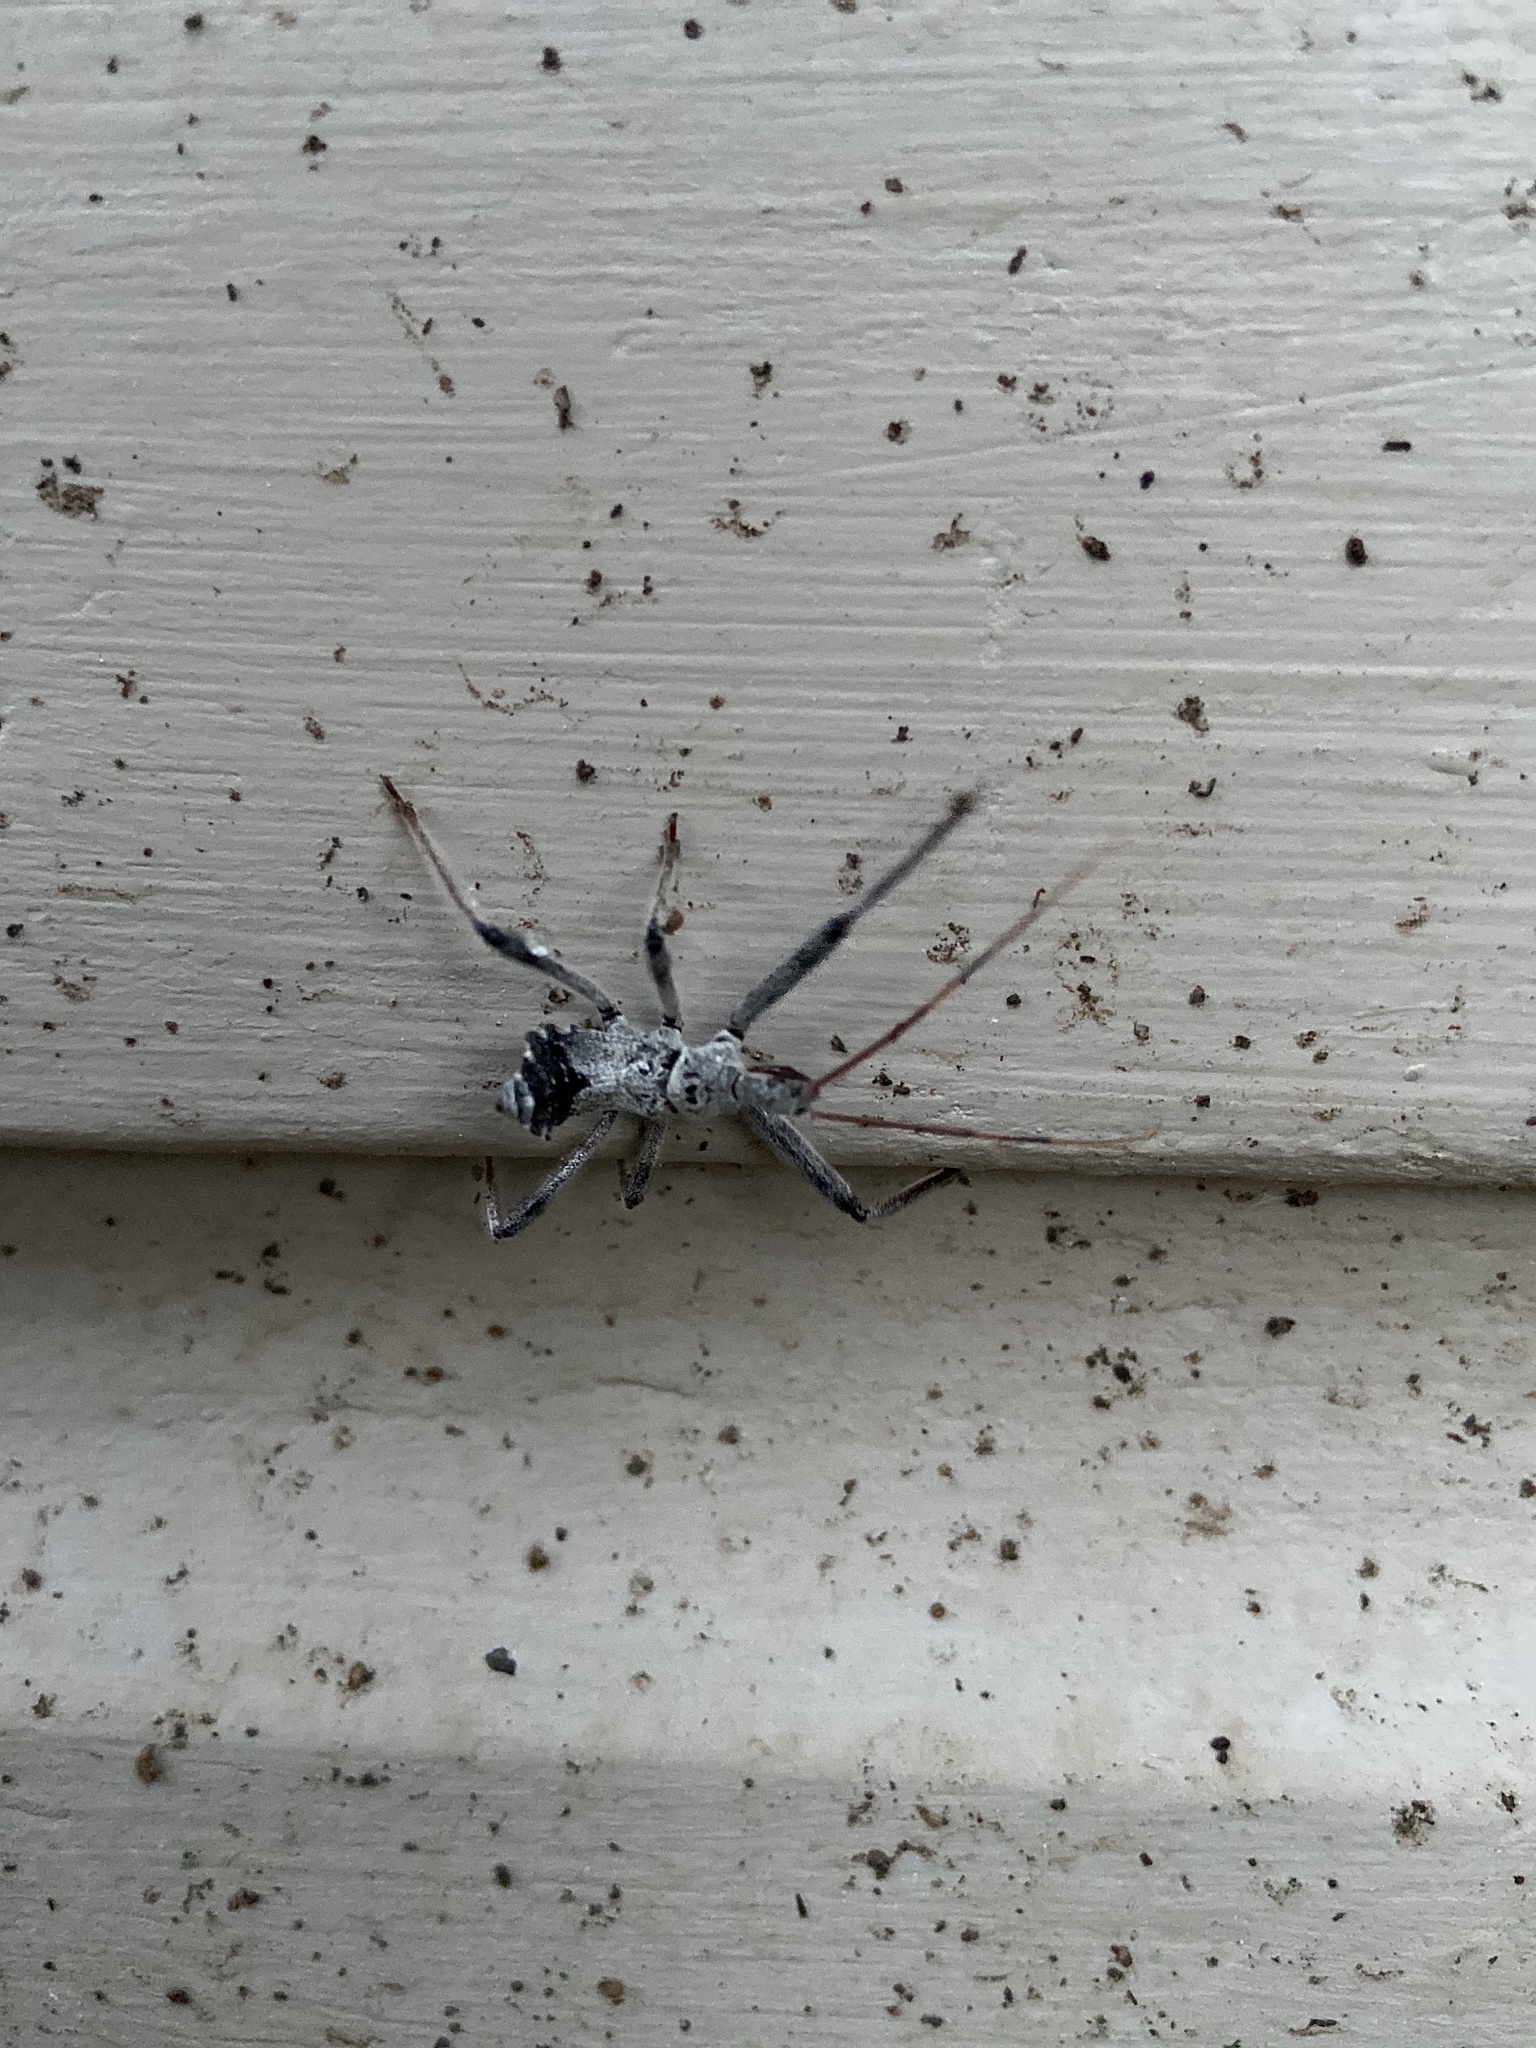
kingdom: Animalia
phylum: Arthropoda
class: Insecta
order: Hemiptera
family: Reduviidae
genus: Arilus
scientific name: Arilus cristatus
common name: North american wheel bug
